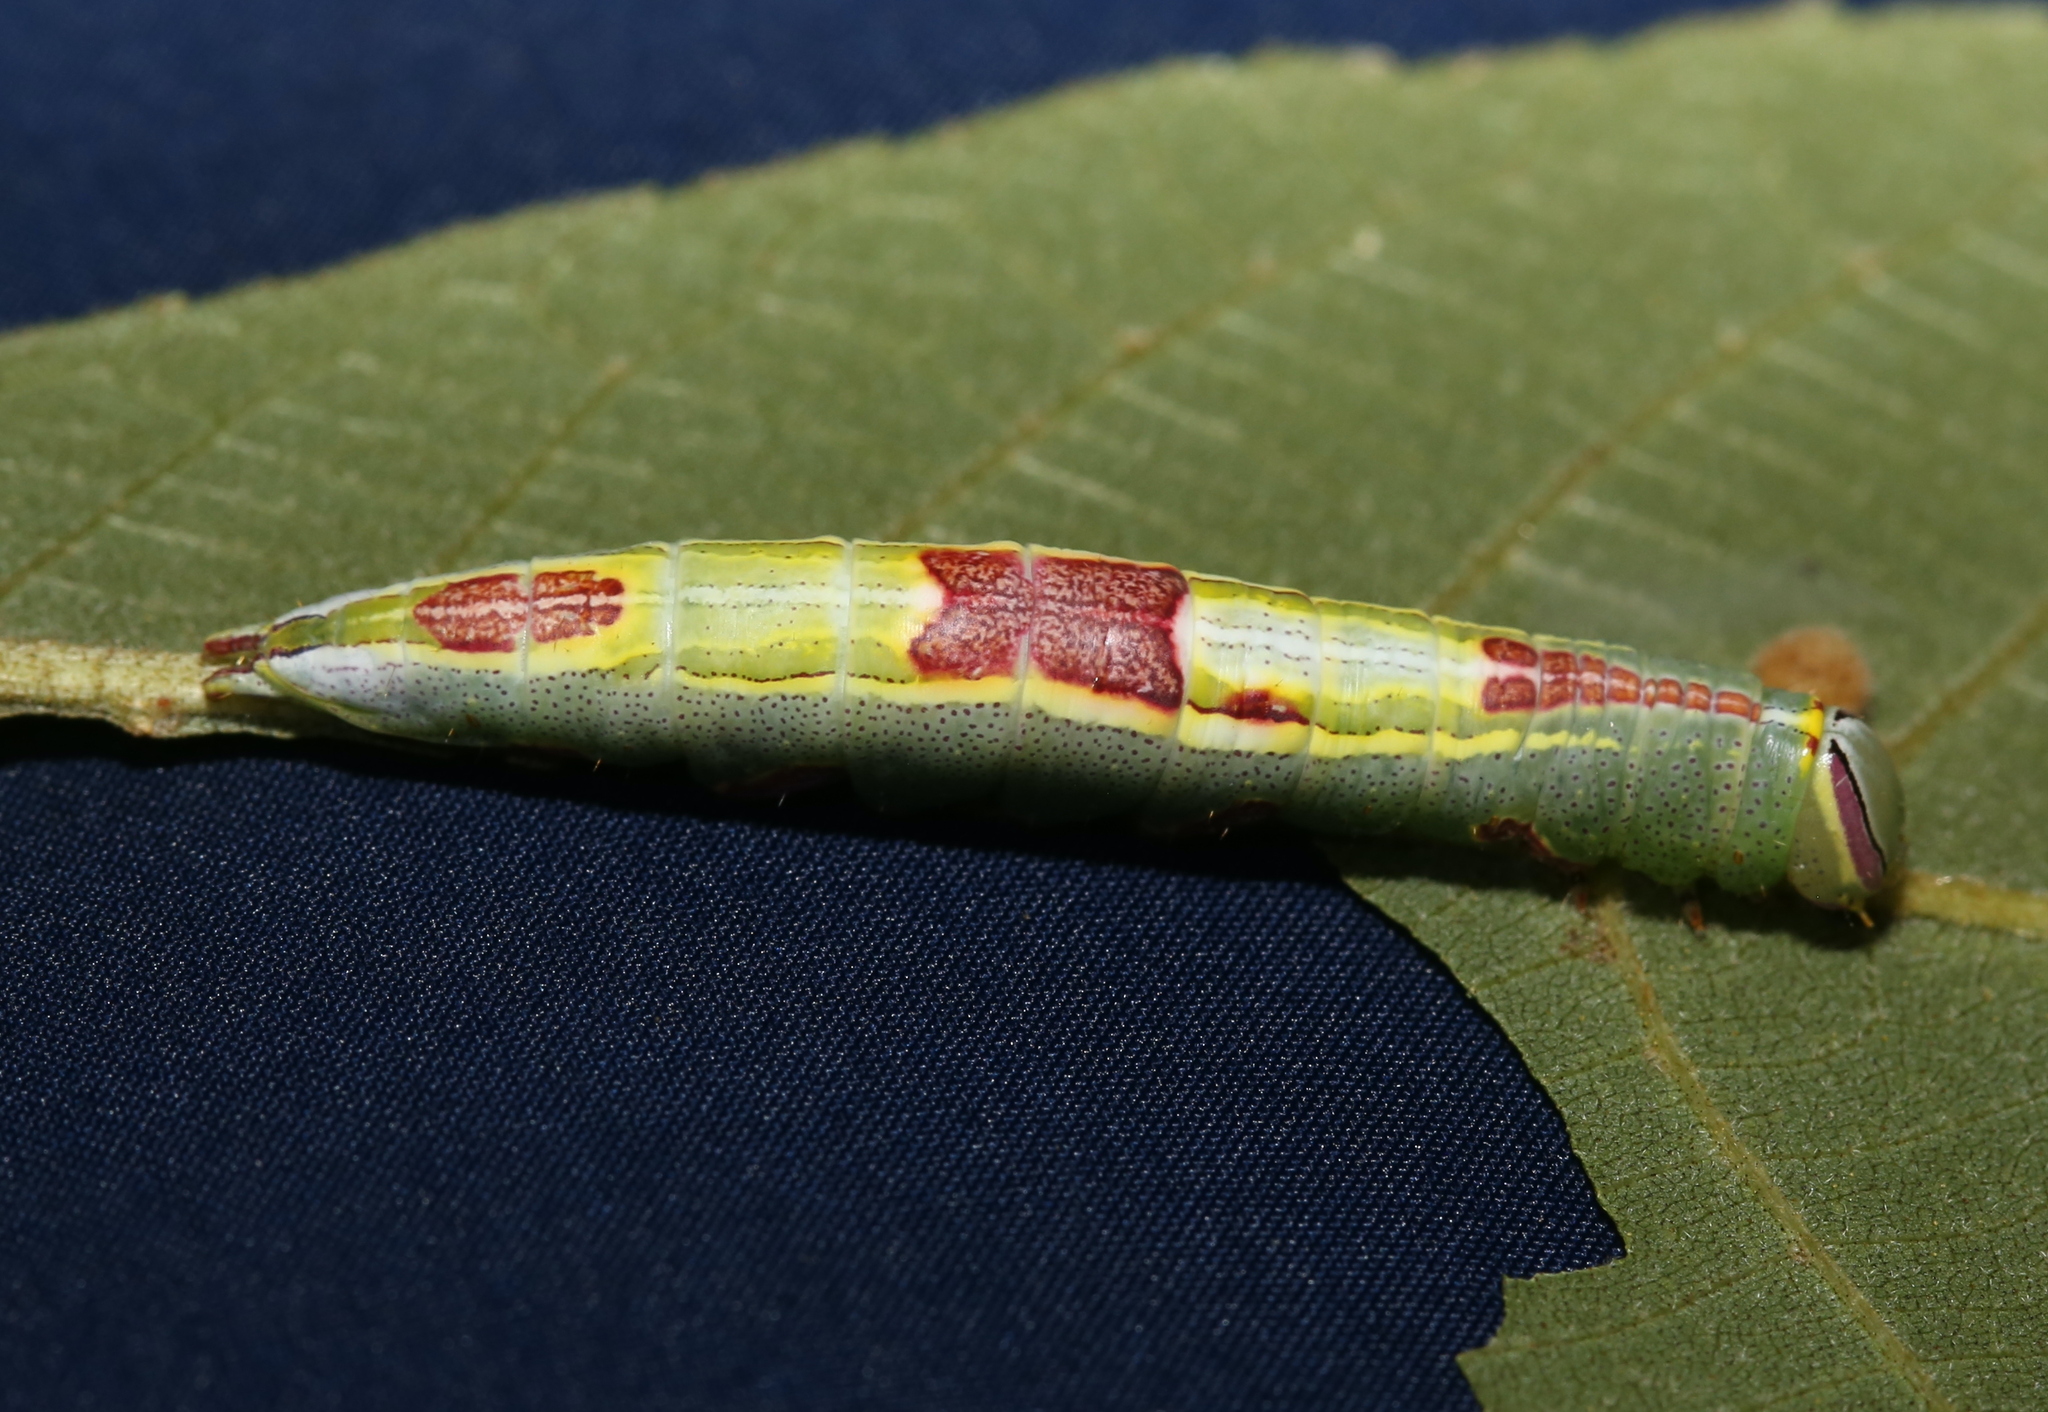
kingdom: Animalia
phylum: Arthropoda
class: Insecta
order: Lepidoptera
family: Notodontidae
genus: Disphragis
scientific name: Disphragis Cecrita guttivitta
